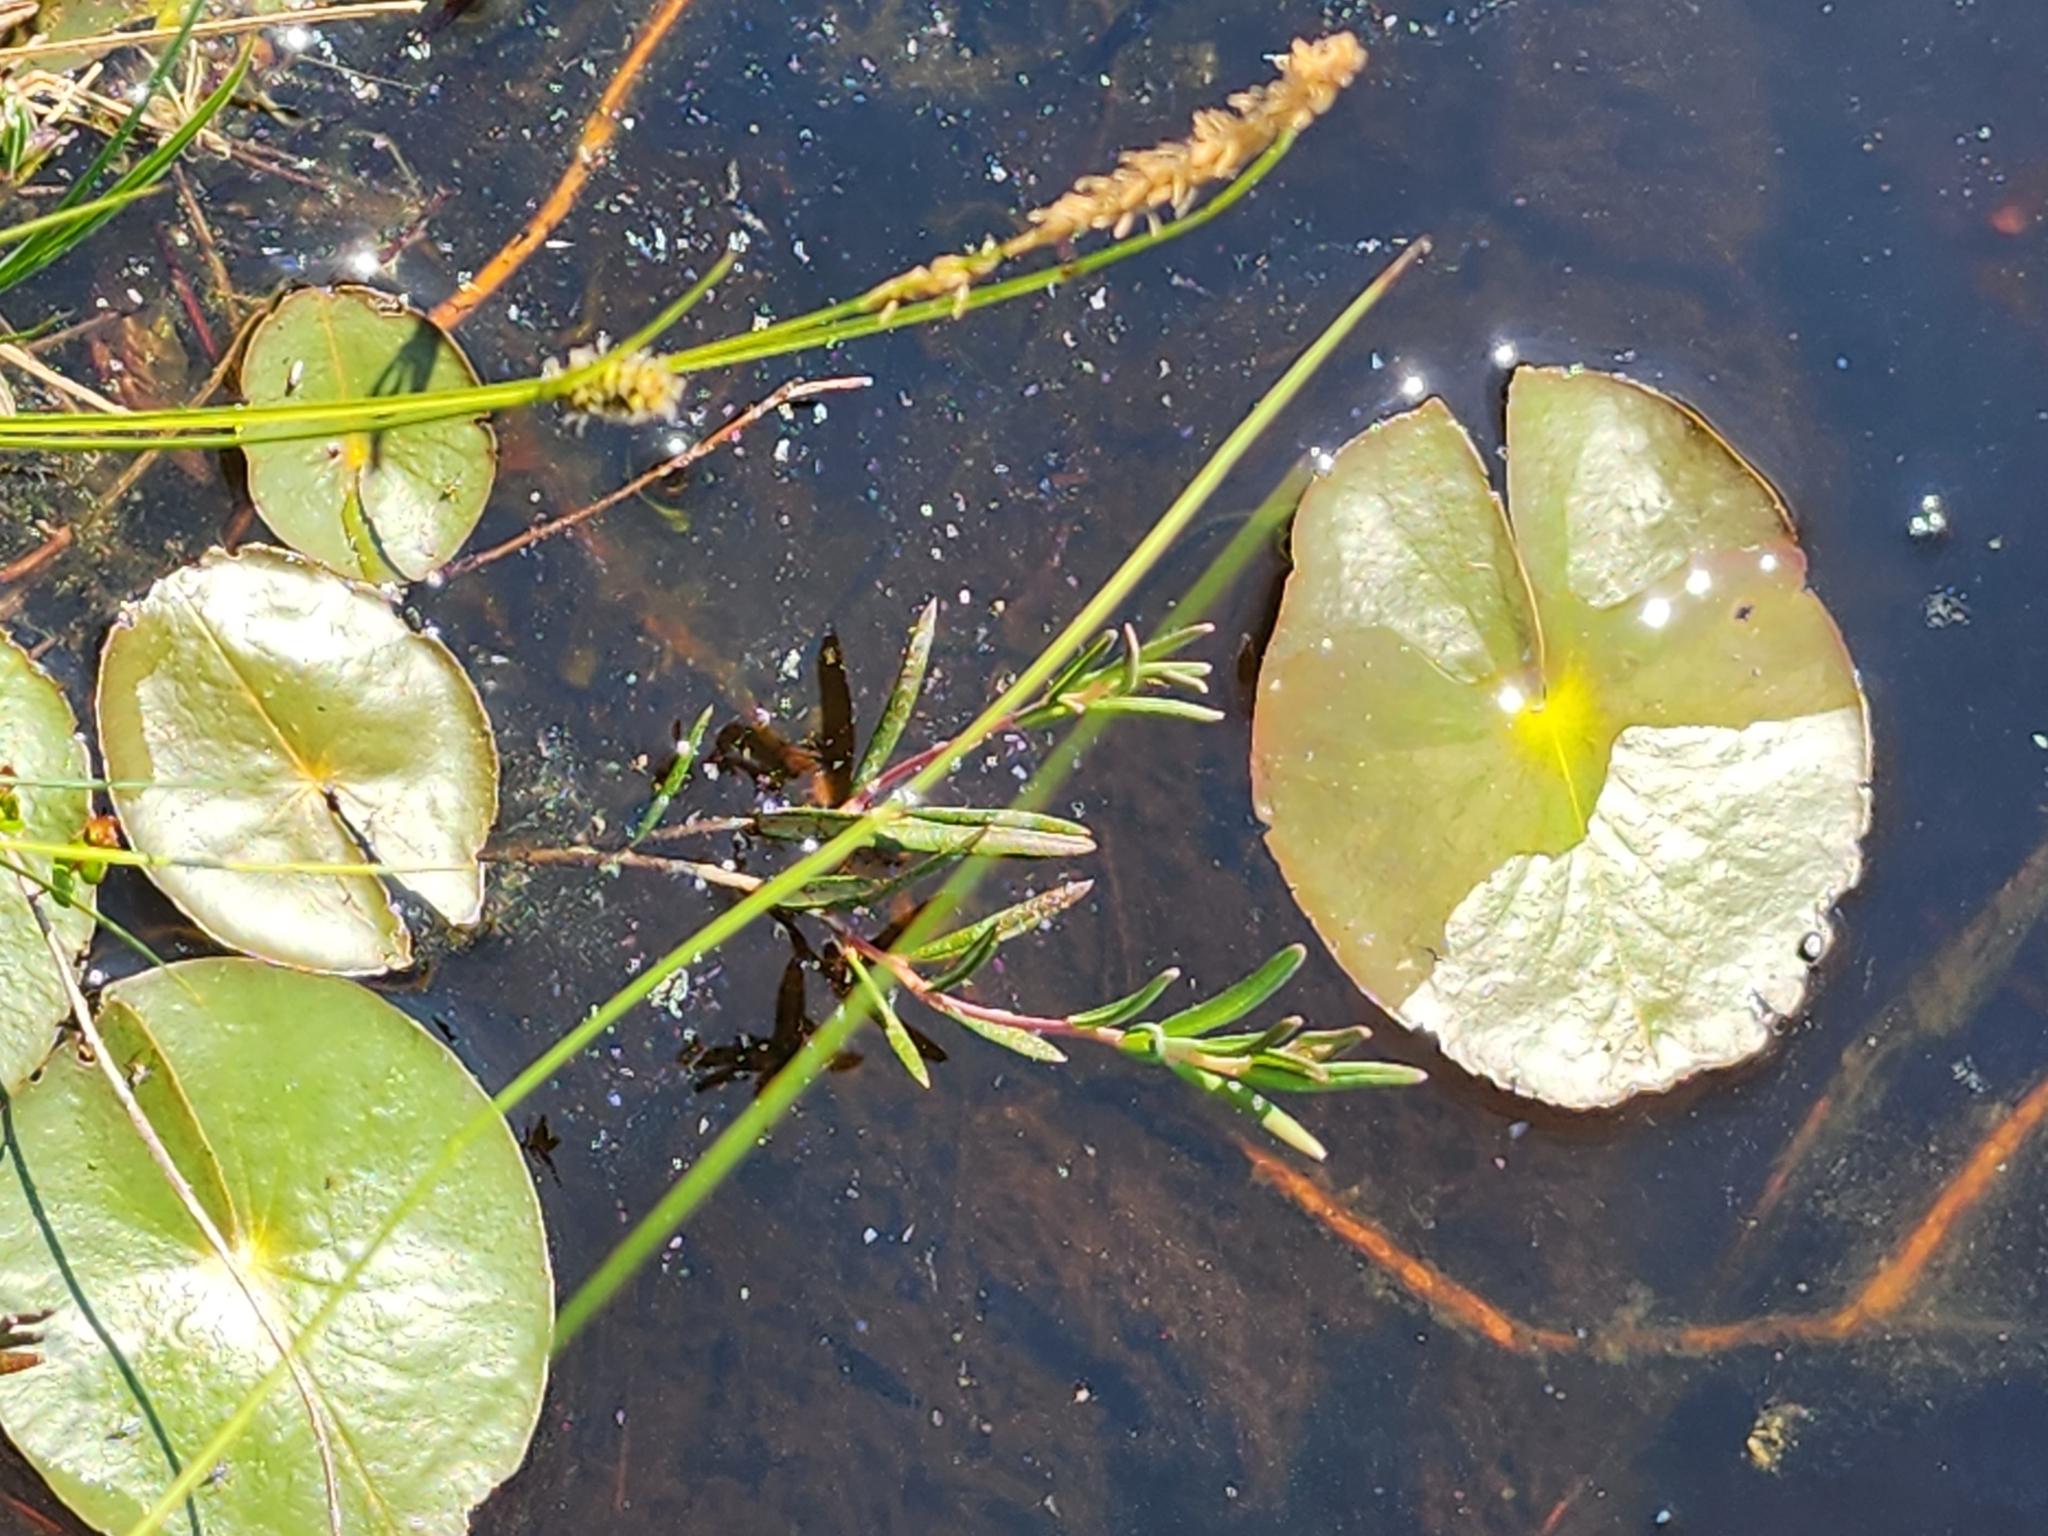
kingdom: Plantae
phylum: Tracheophyta
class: Magnoliopsida
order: Nymphaeales
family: Nymphaeaceae
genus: Nymphaea
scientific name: Nymphaea odorata
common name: Fragrant water-lily
